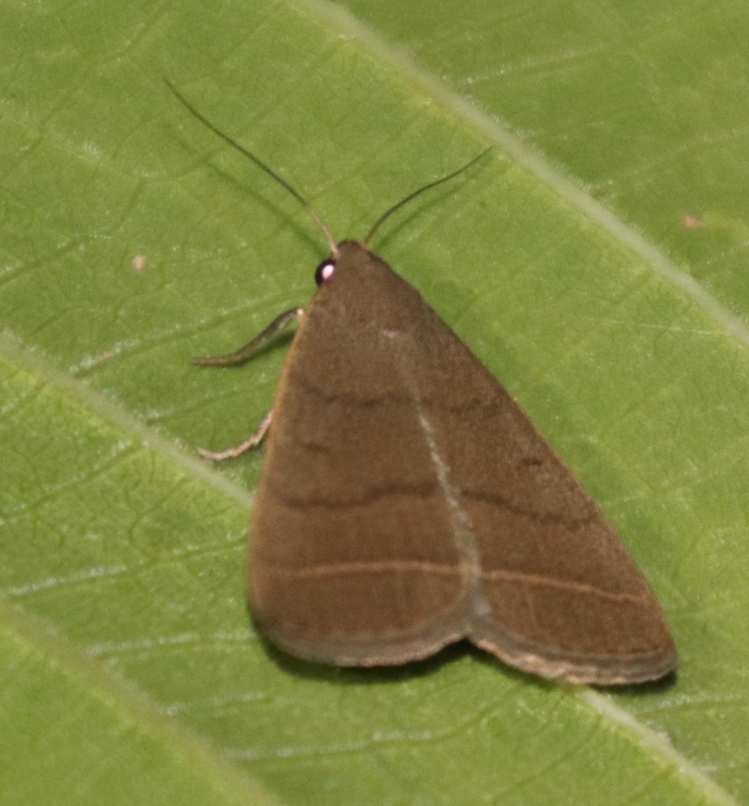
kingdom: Animalia
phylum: Arthropoda
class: Insecta
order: Lepidoptera
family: Erebidae
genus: Simplicia
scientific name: Simplicia extinctalis
